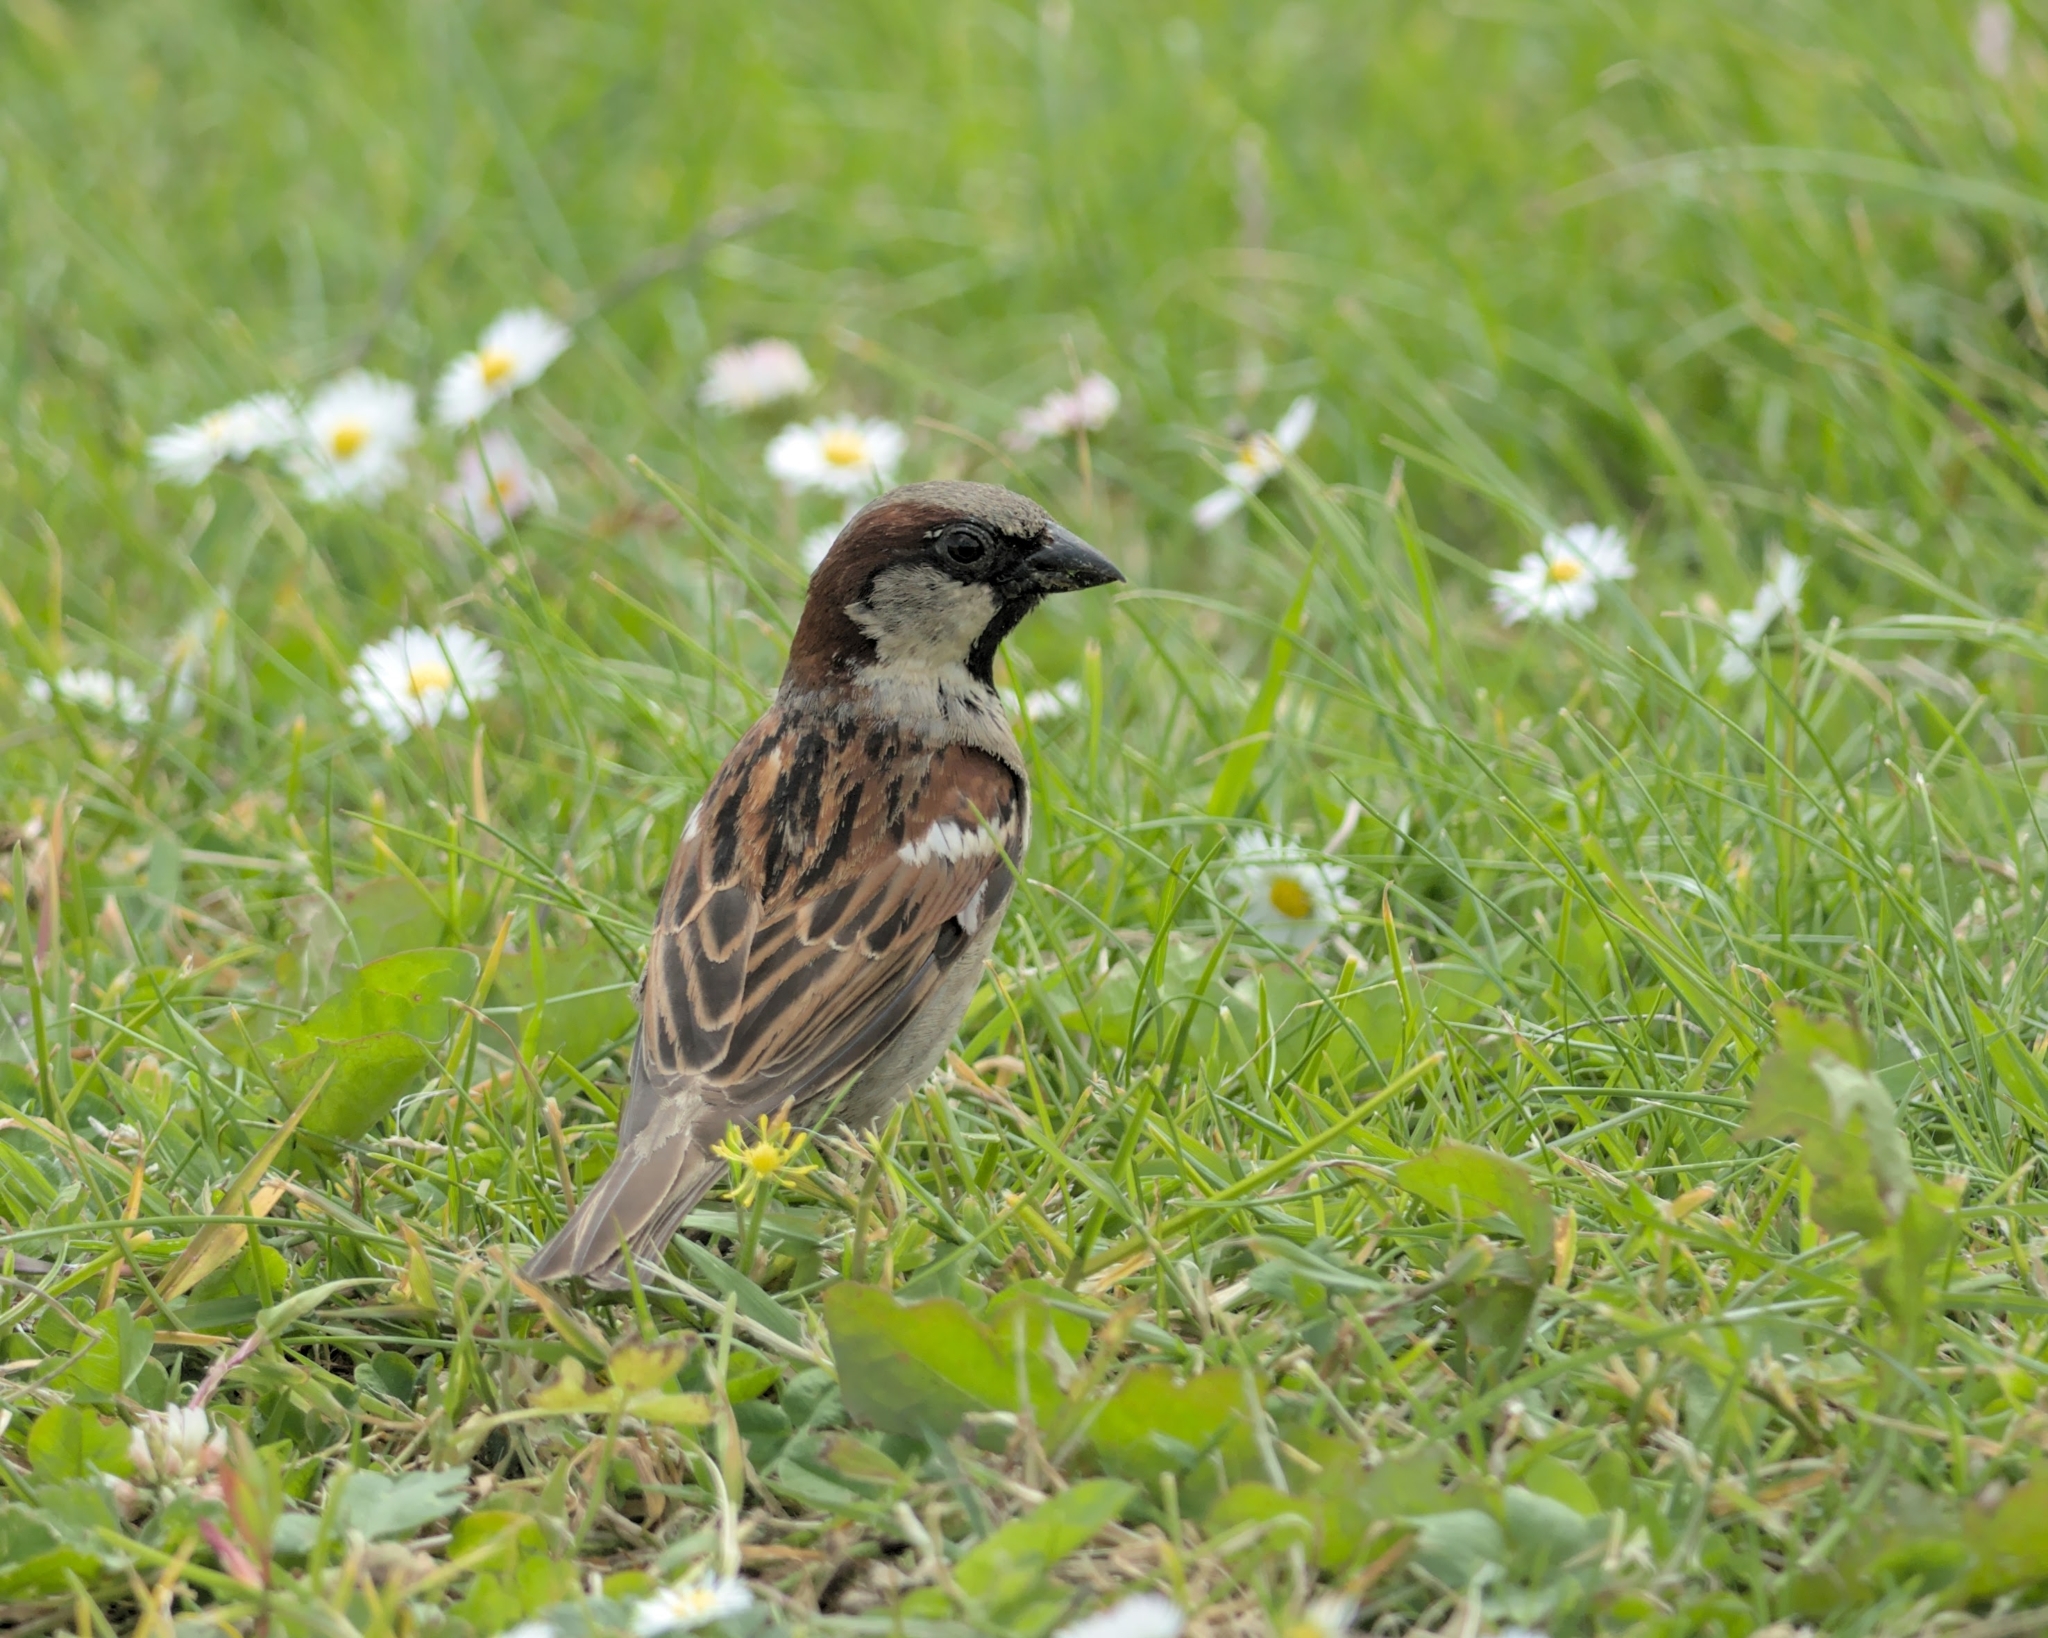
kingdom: Animalia
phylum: Chordata
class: Aves
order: Passeriformes
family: Passeridae
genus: Passer
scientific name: Passer domesticus
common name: House sparrow
